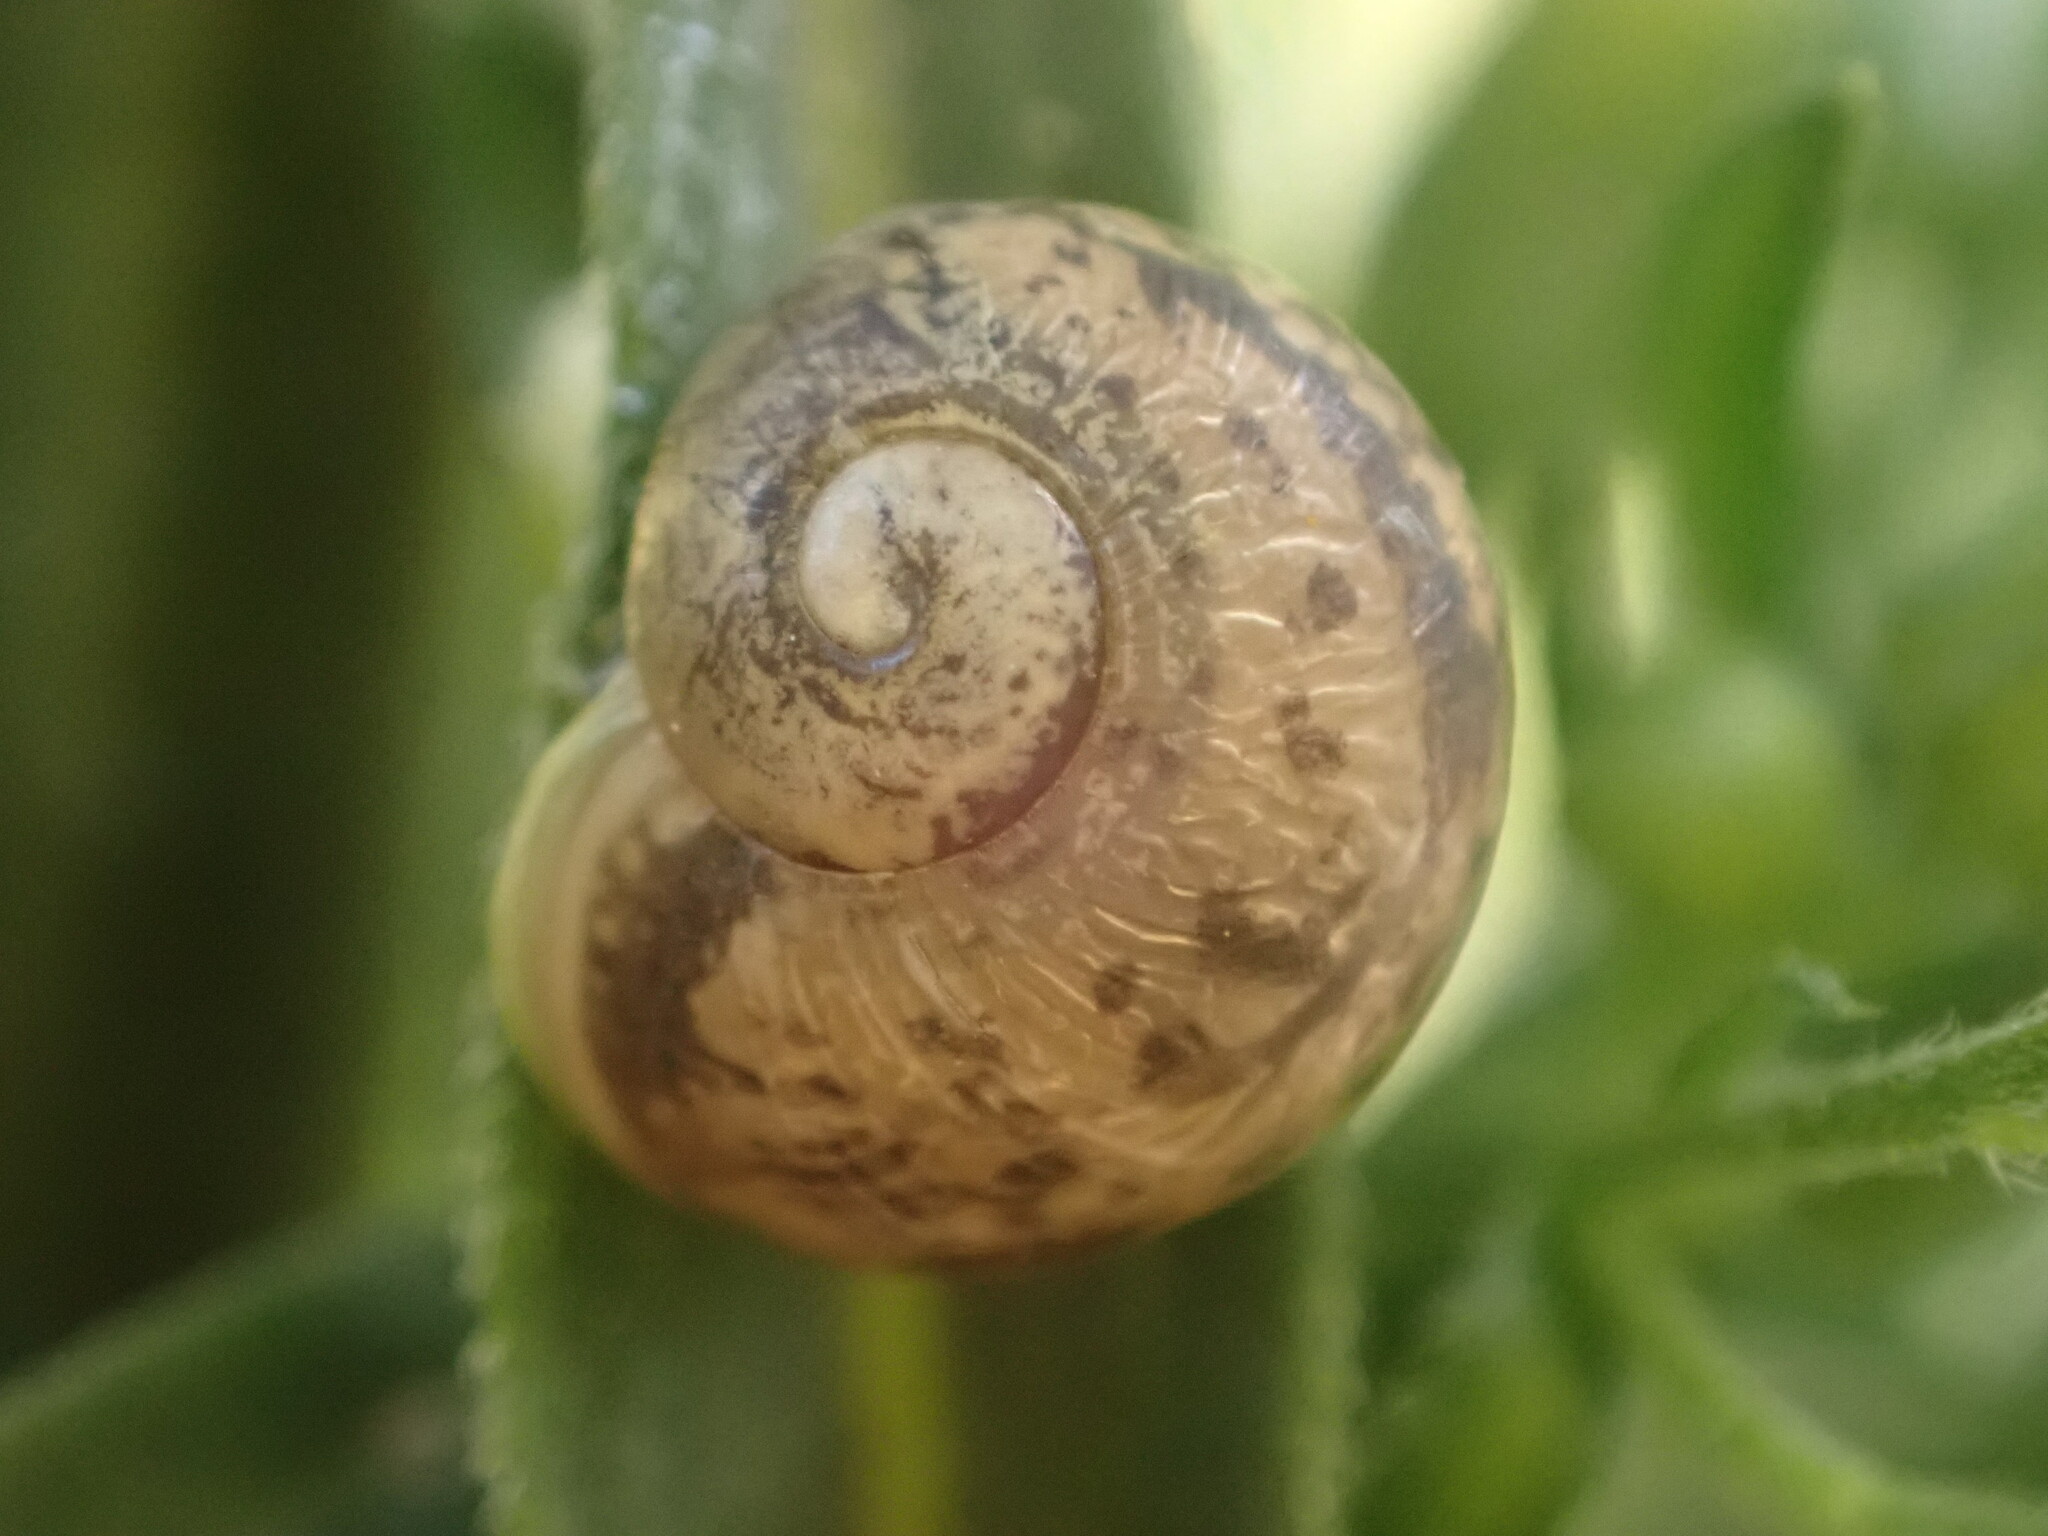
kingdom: Animalia
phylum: Mollusca
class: Gastropoda
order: Stylommatophora
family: Helicidae
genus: Cornu
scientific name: Cornu aspersum
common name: Brown garden snail
